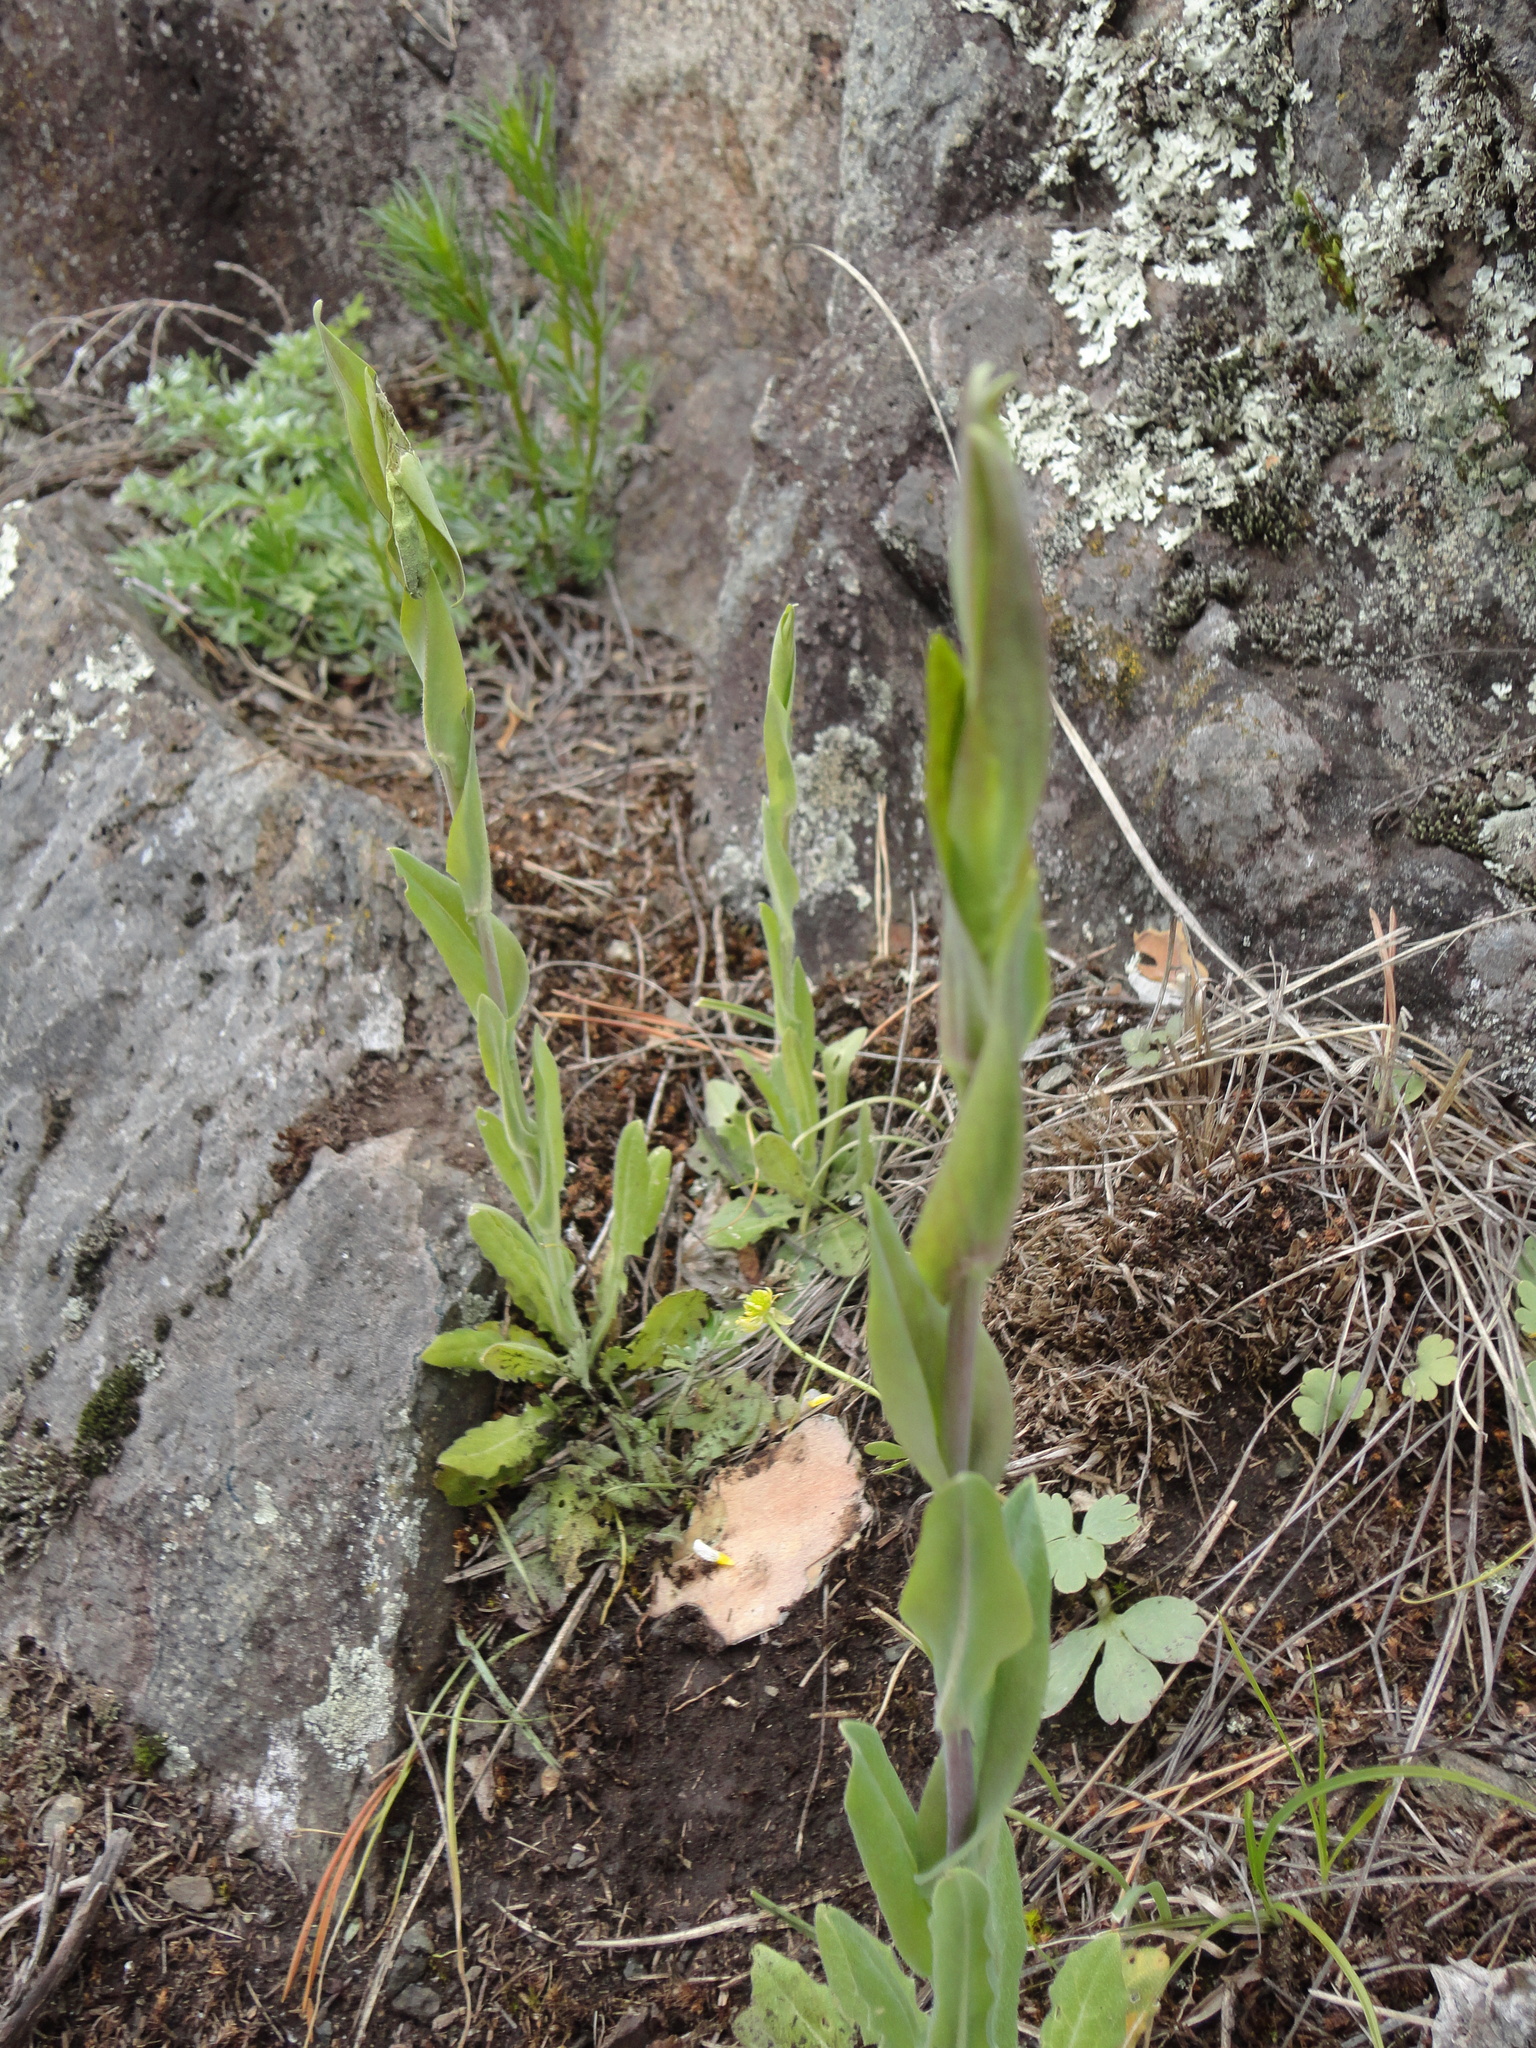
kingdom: Plantae
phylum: Tracheophyta
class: Magnoliopsida
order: Brassicales
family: Brassicaceae
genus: Turritis
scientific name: Turritis glabra
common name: Tower rockcress
